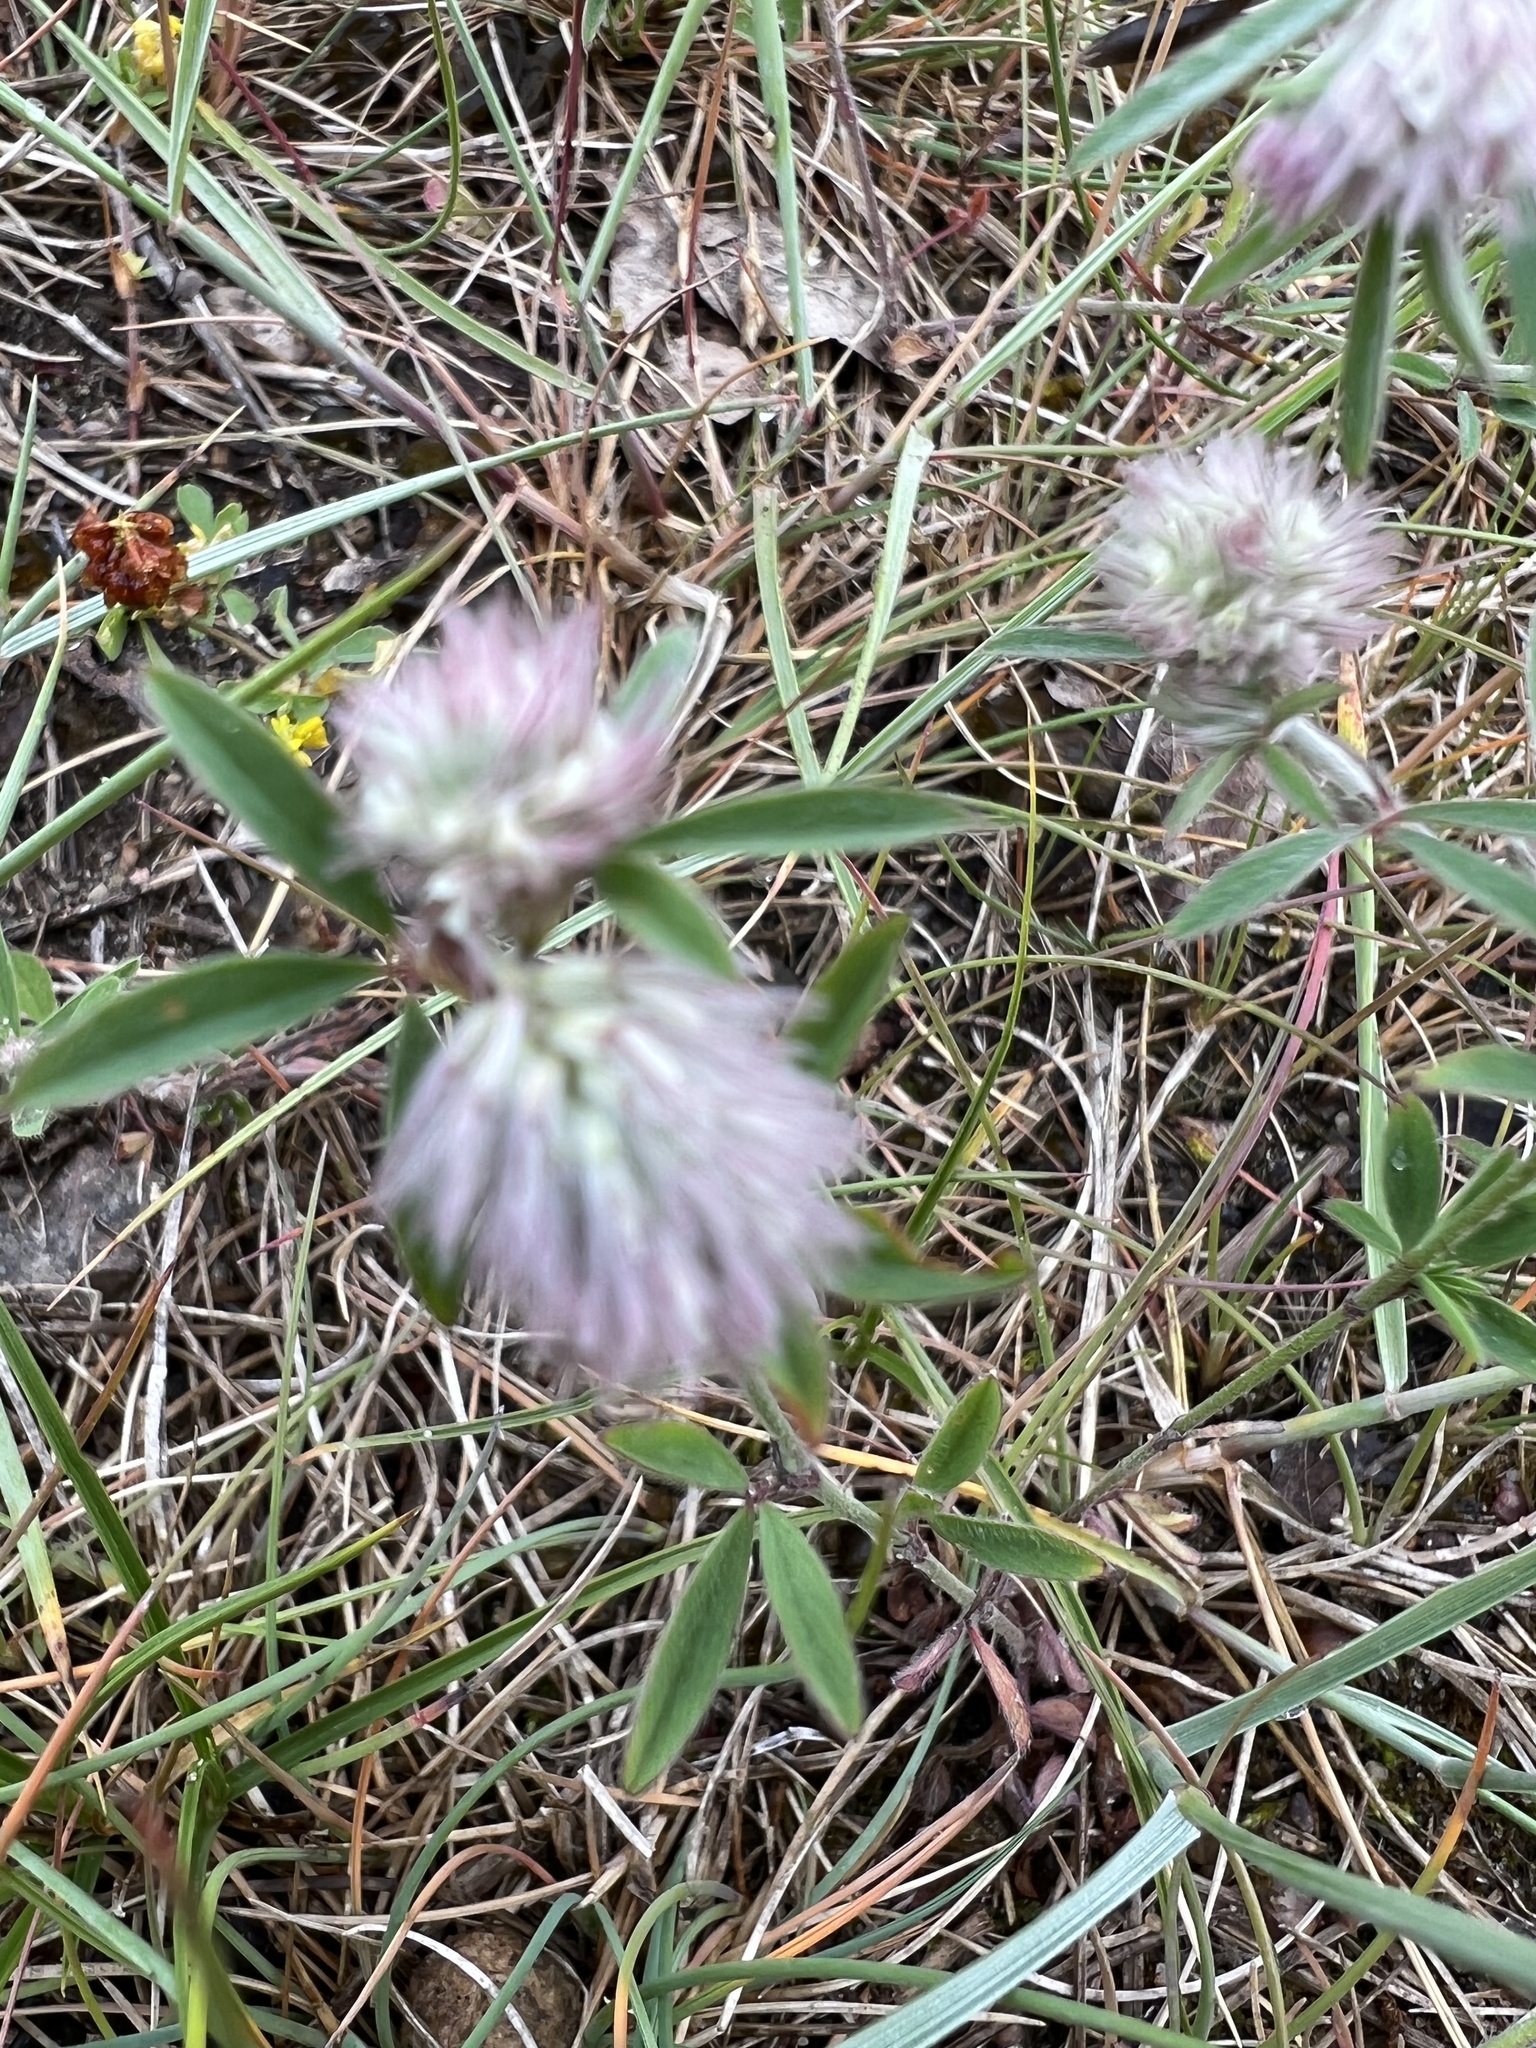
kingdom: Plantae
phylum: Tracheophyta
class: Magnoliopsida
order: Fabales
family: Fabaceae
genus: Trifolium
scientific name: Trifolium arvense
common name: Hare's-foot clover
